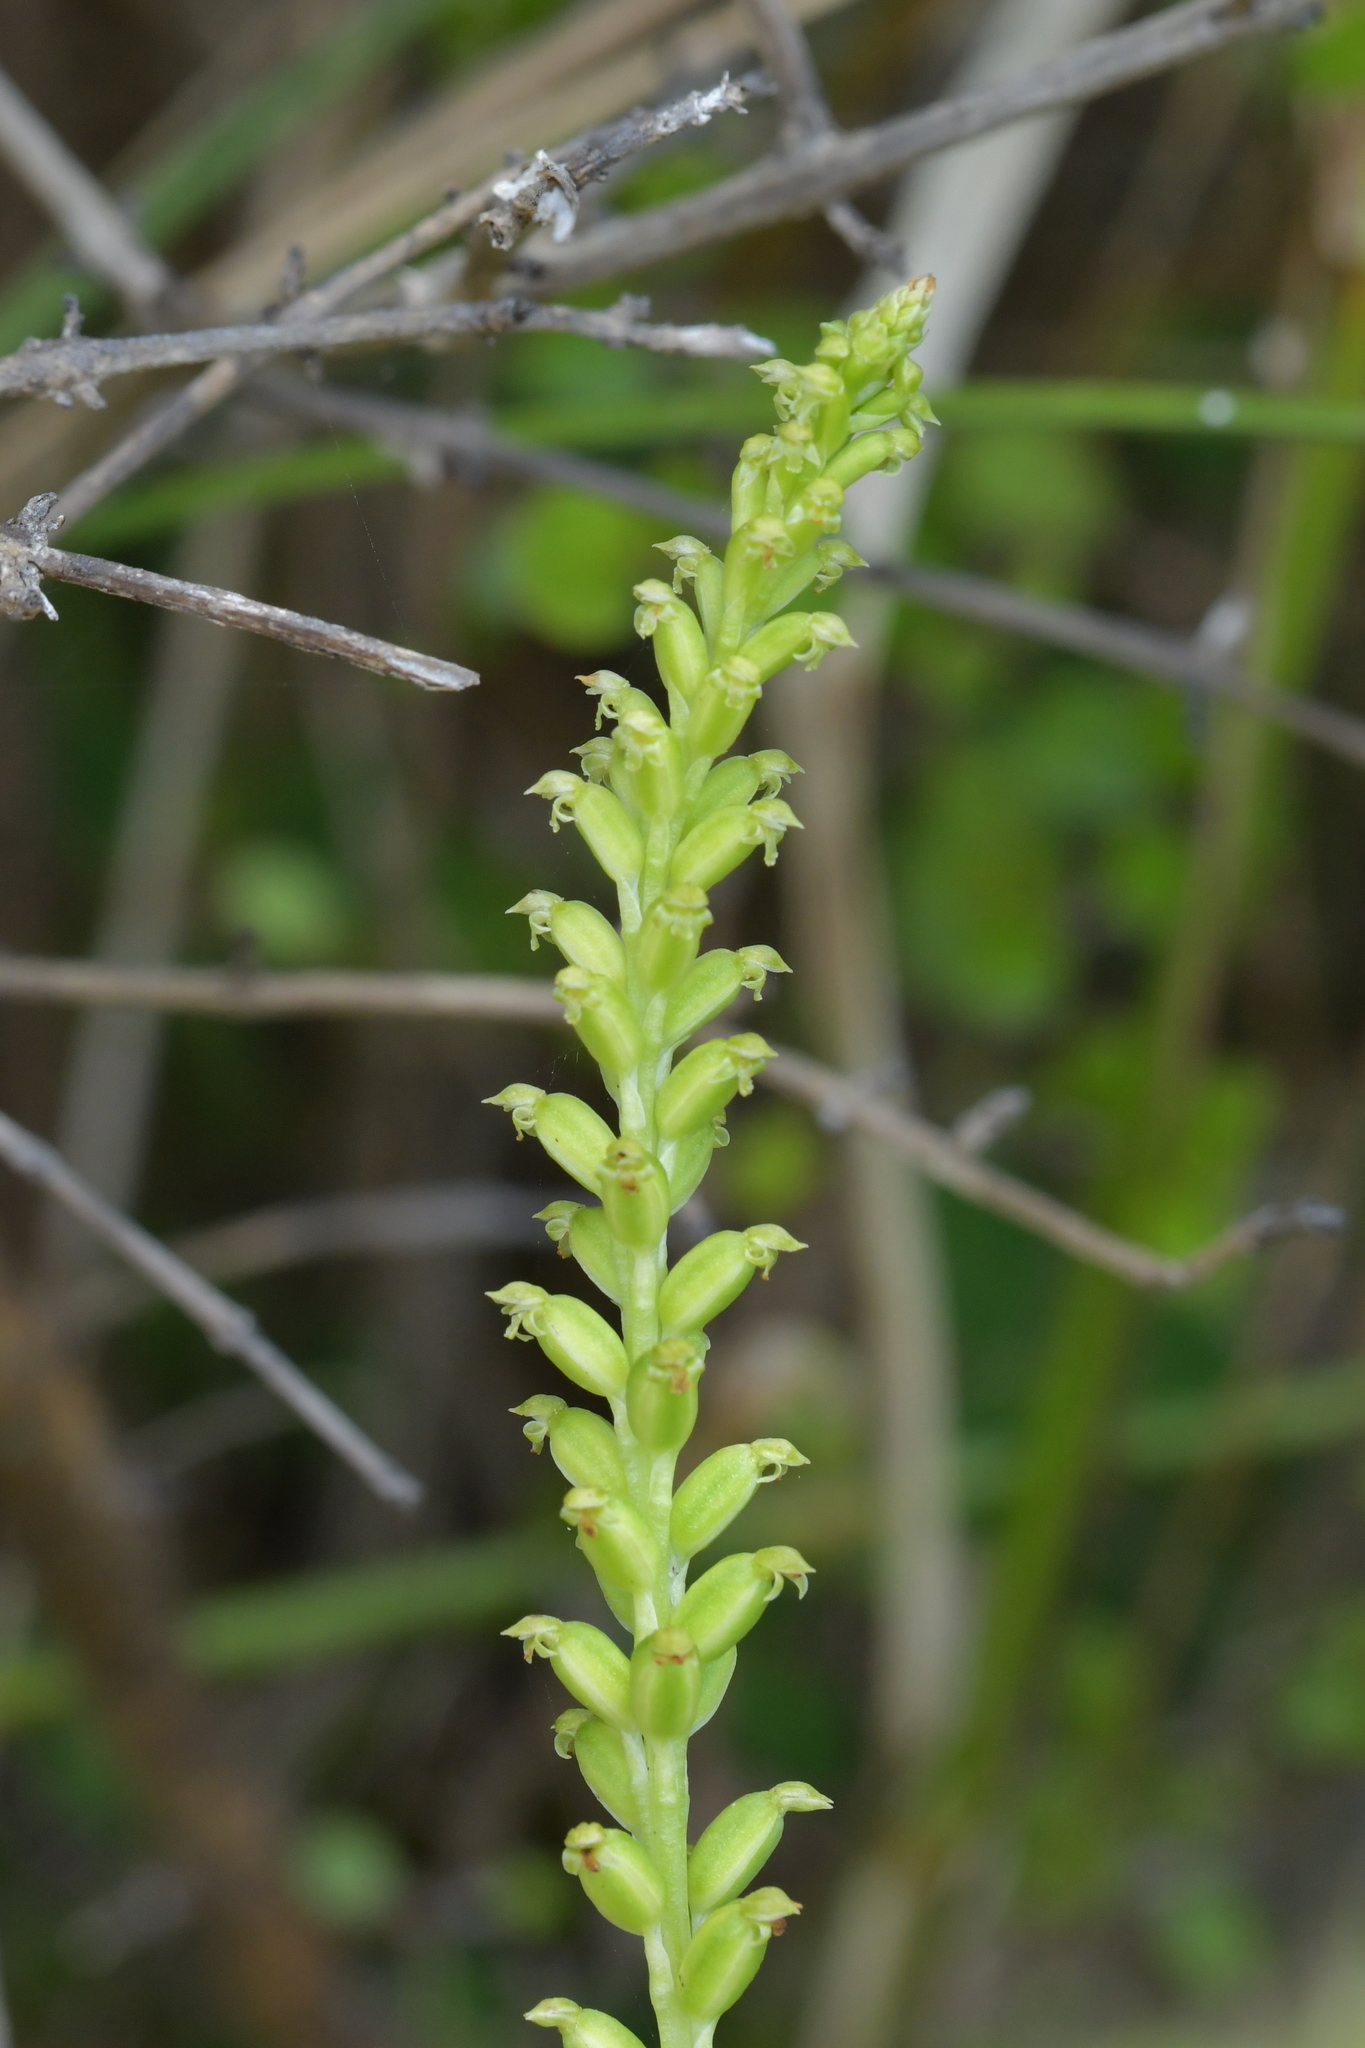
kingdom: Plantae
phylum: Tracheophyta
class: Liliopsida
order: Asparagales
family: Orchidaceae
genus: Microtis
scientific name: Microtis unifolia
